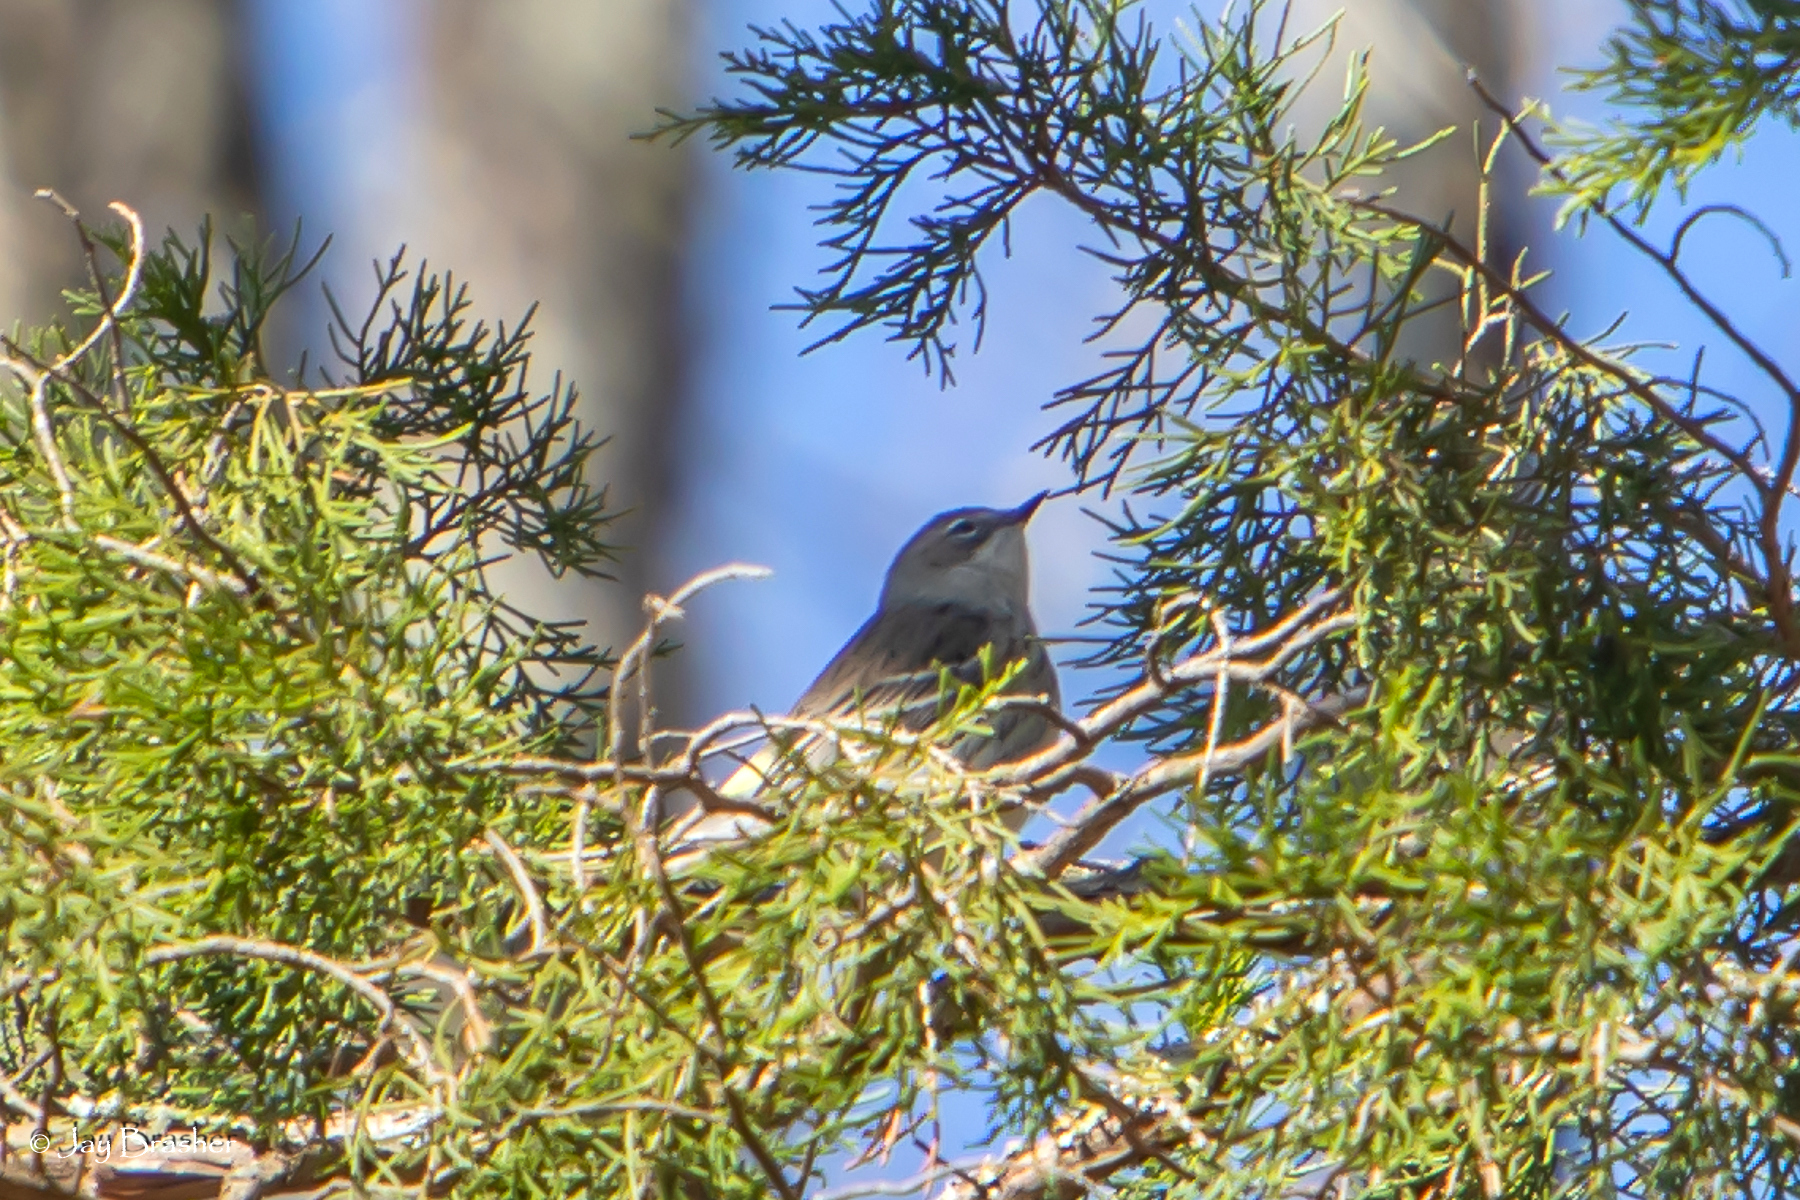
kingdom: Animalia
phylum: Chordata
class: Aves
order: Passeriformes
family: Parulidae
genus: Setophaga
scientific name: Setophaga coronata
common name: Myrtle warbler
